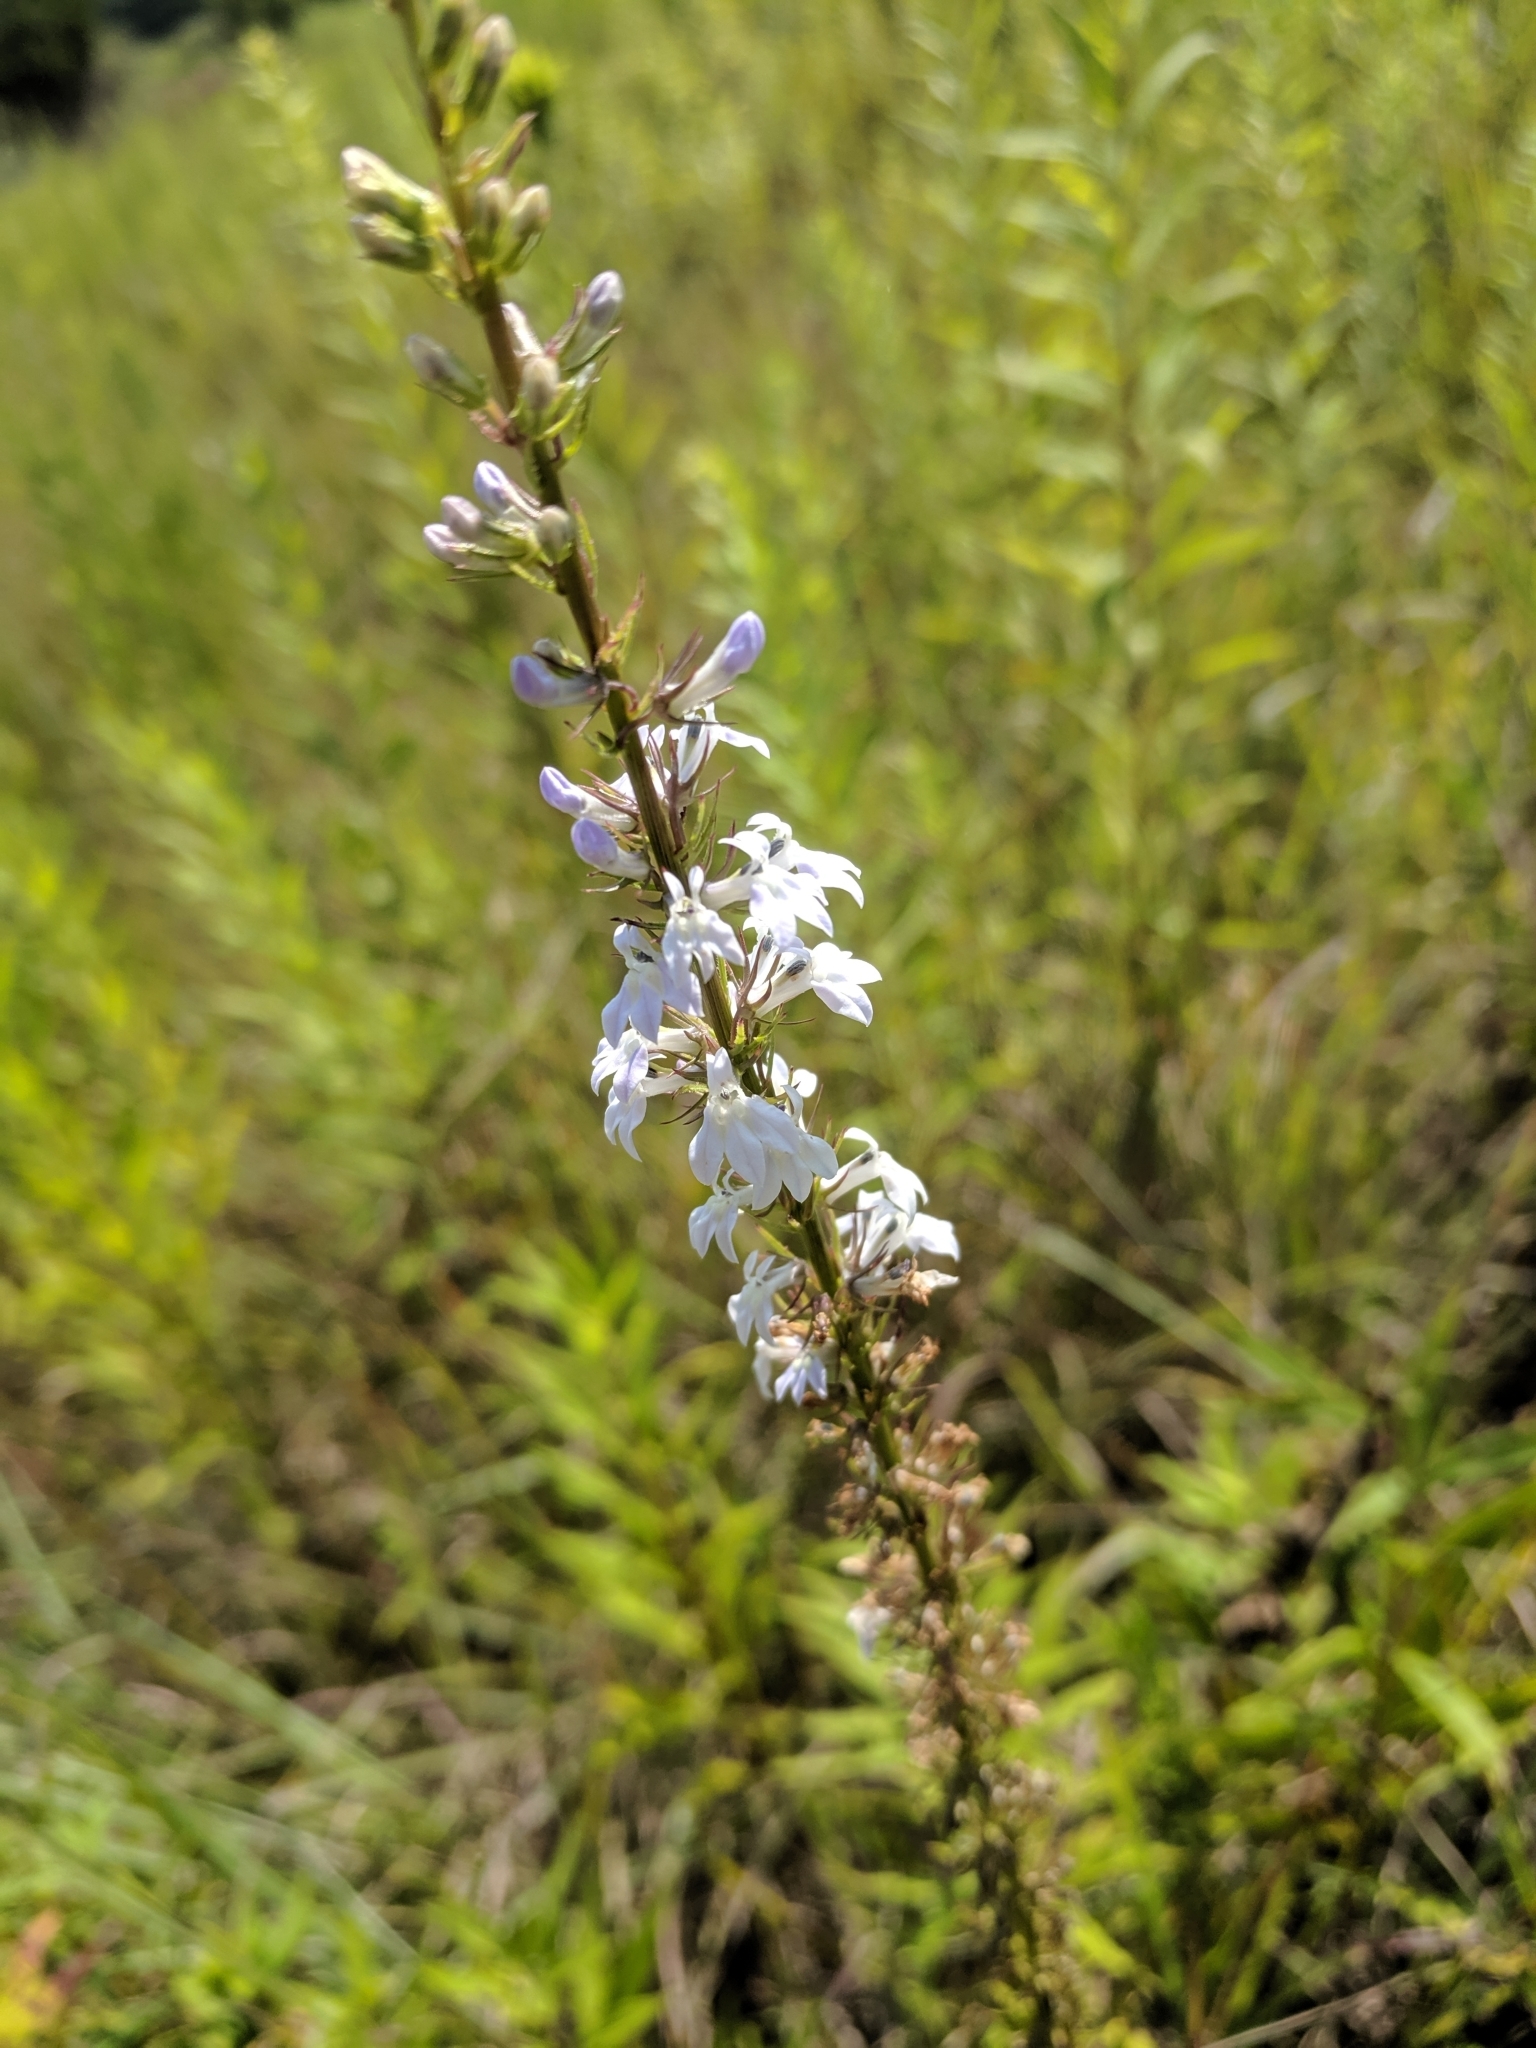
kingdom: Plantae
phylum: Tracheophyta
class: Magnoliopsida
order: Asterales
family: Campanulaceae
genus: Lobelia
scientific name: Lobelia spicata
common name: Pale-spike lobelia
